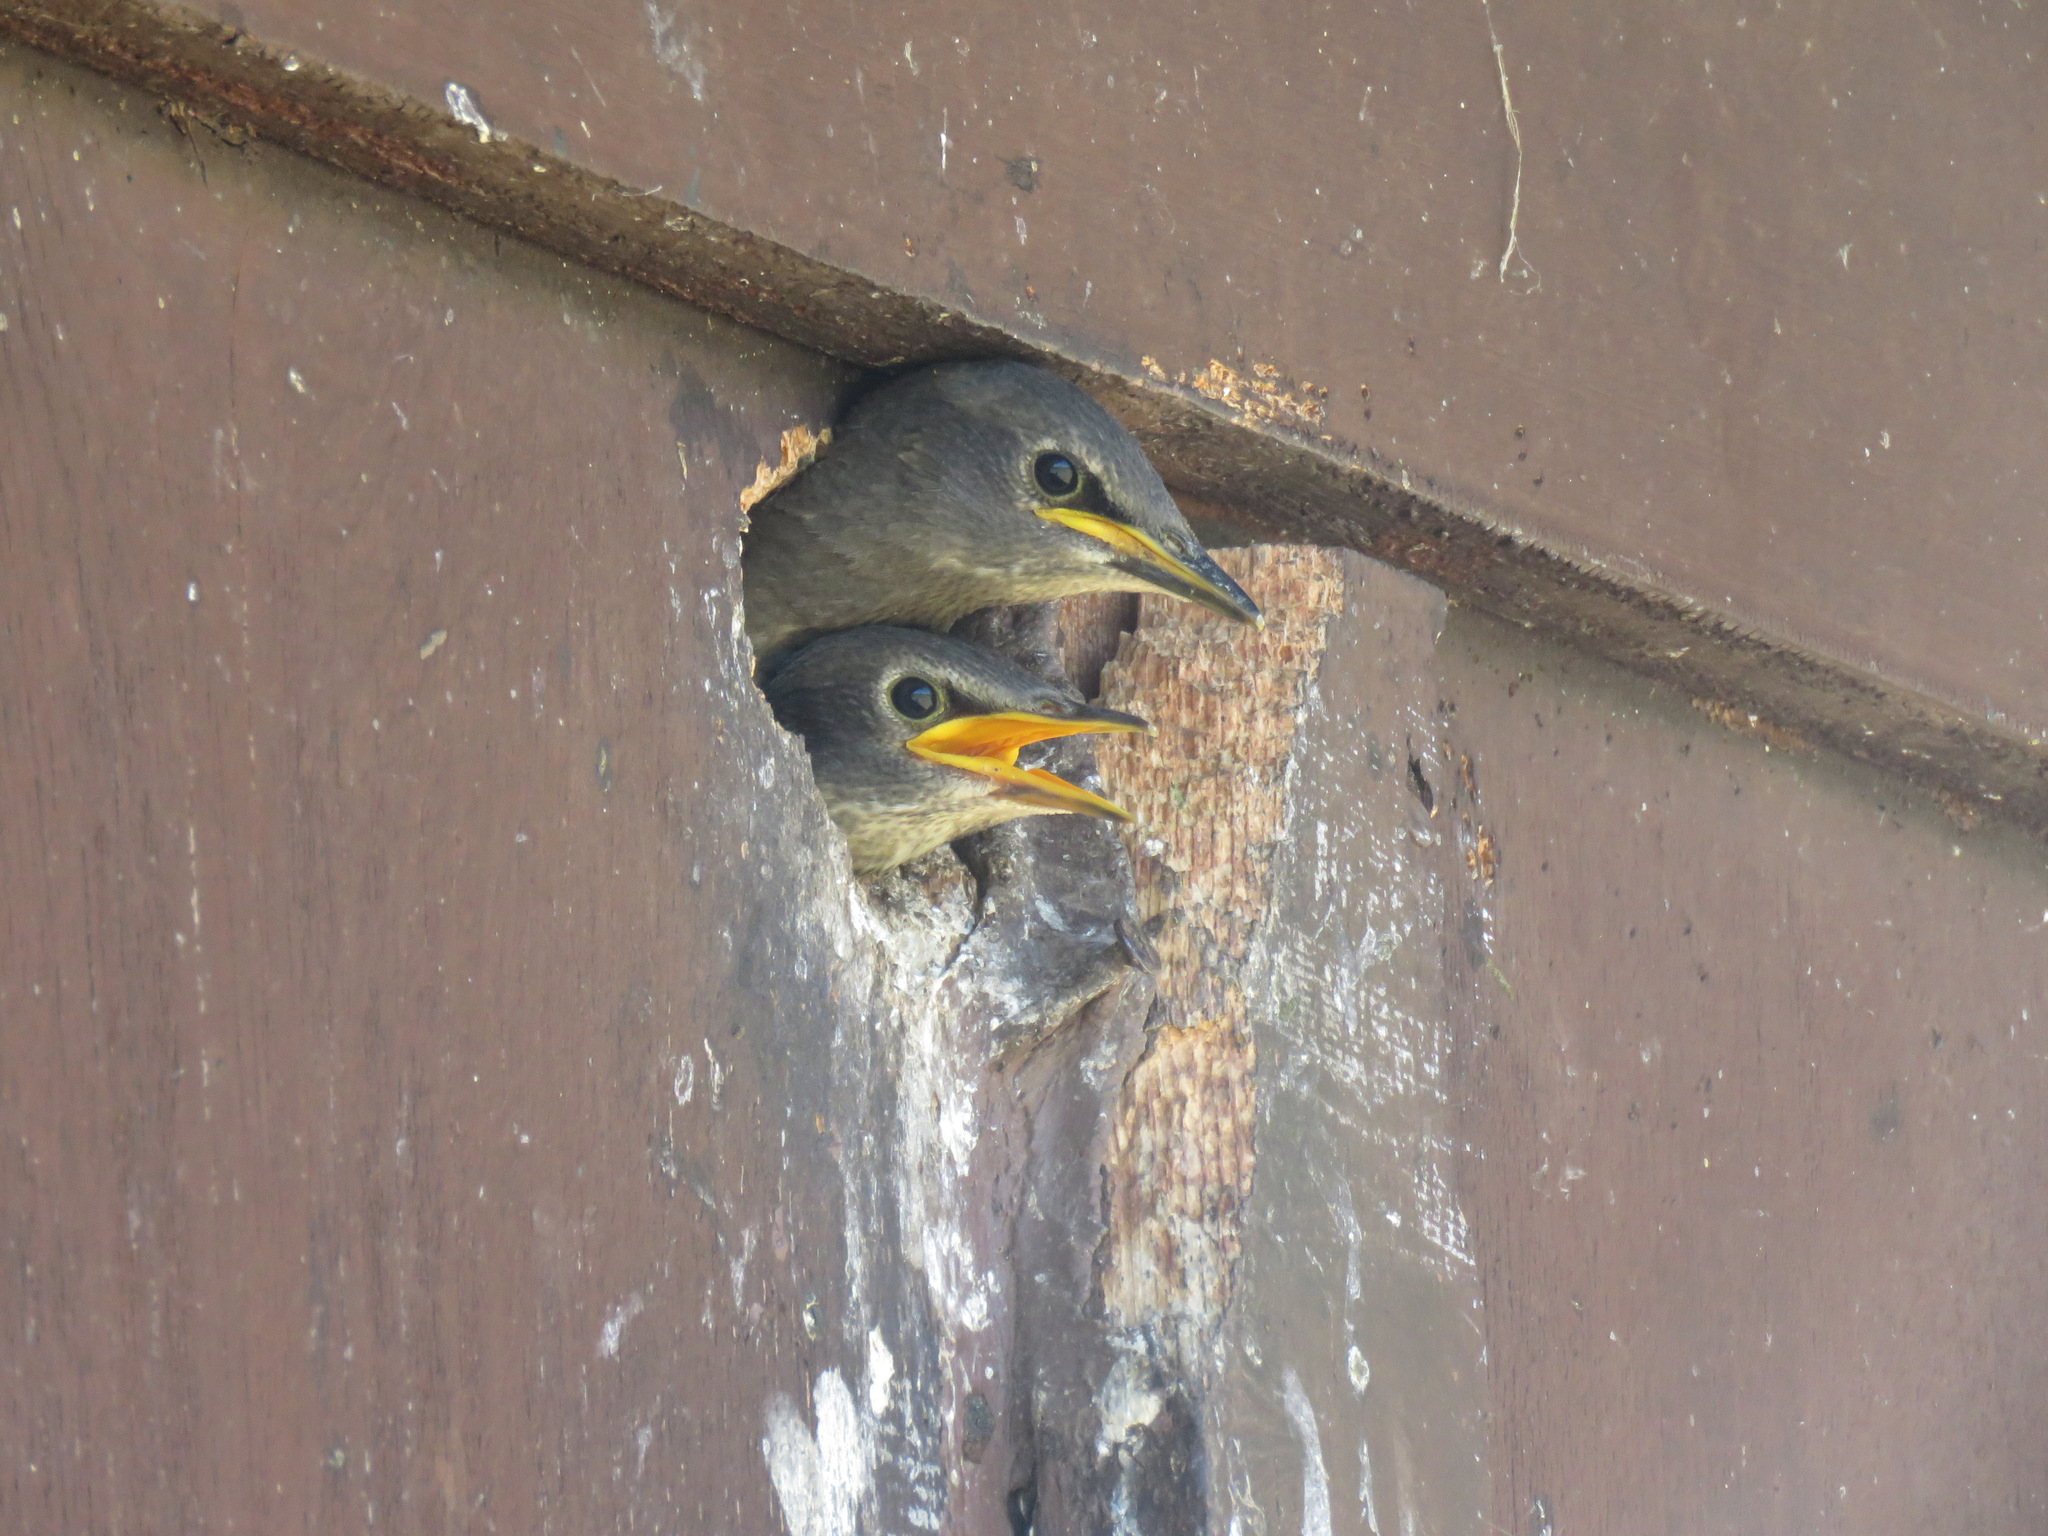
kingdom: Animalia
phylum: Chordata
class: Aves
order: Passeriformes
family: Sturnidae
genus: Sturnus
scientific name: Sturnus vulgaris
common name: Common starling
